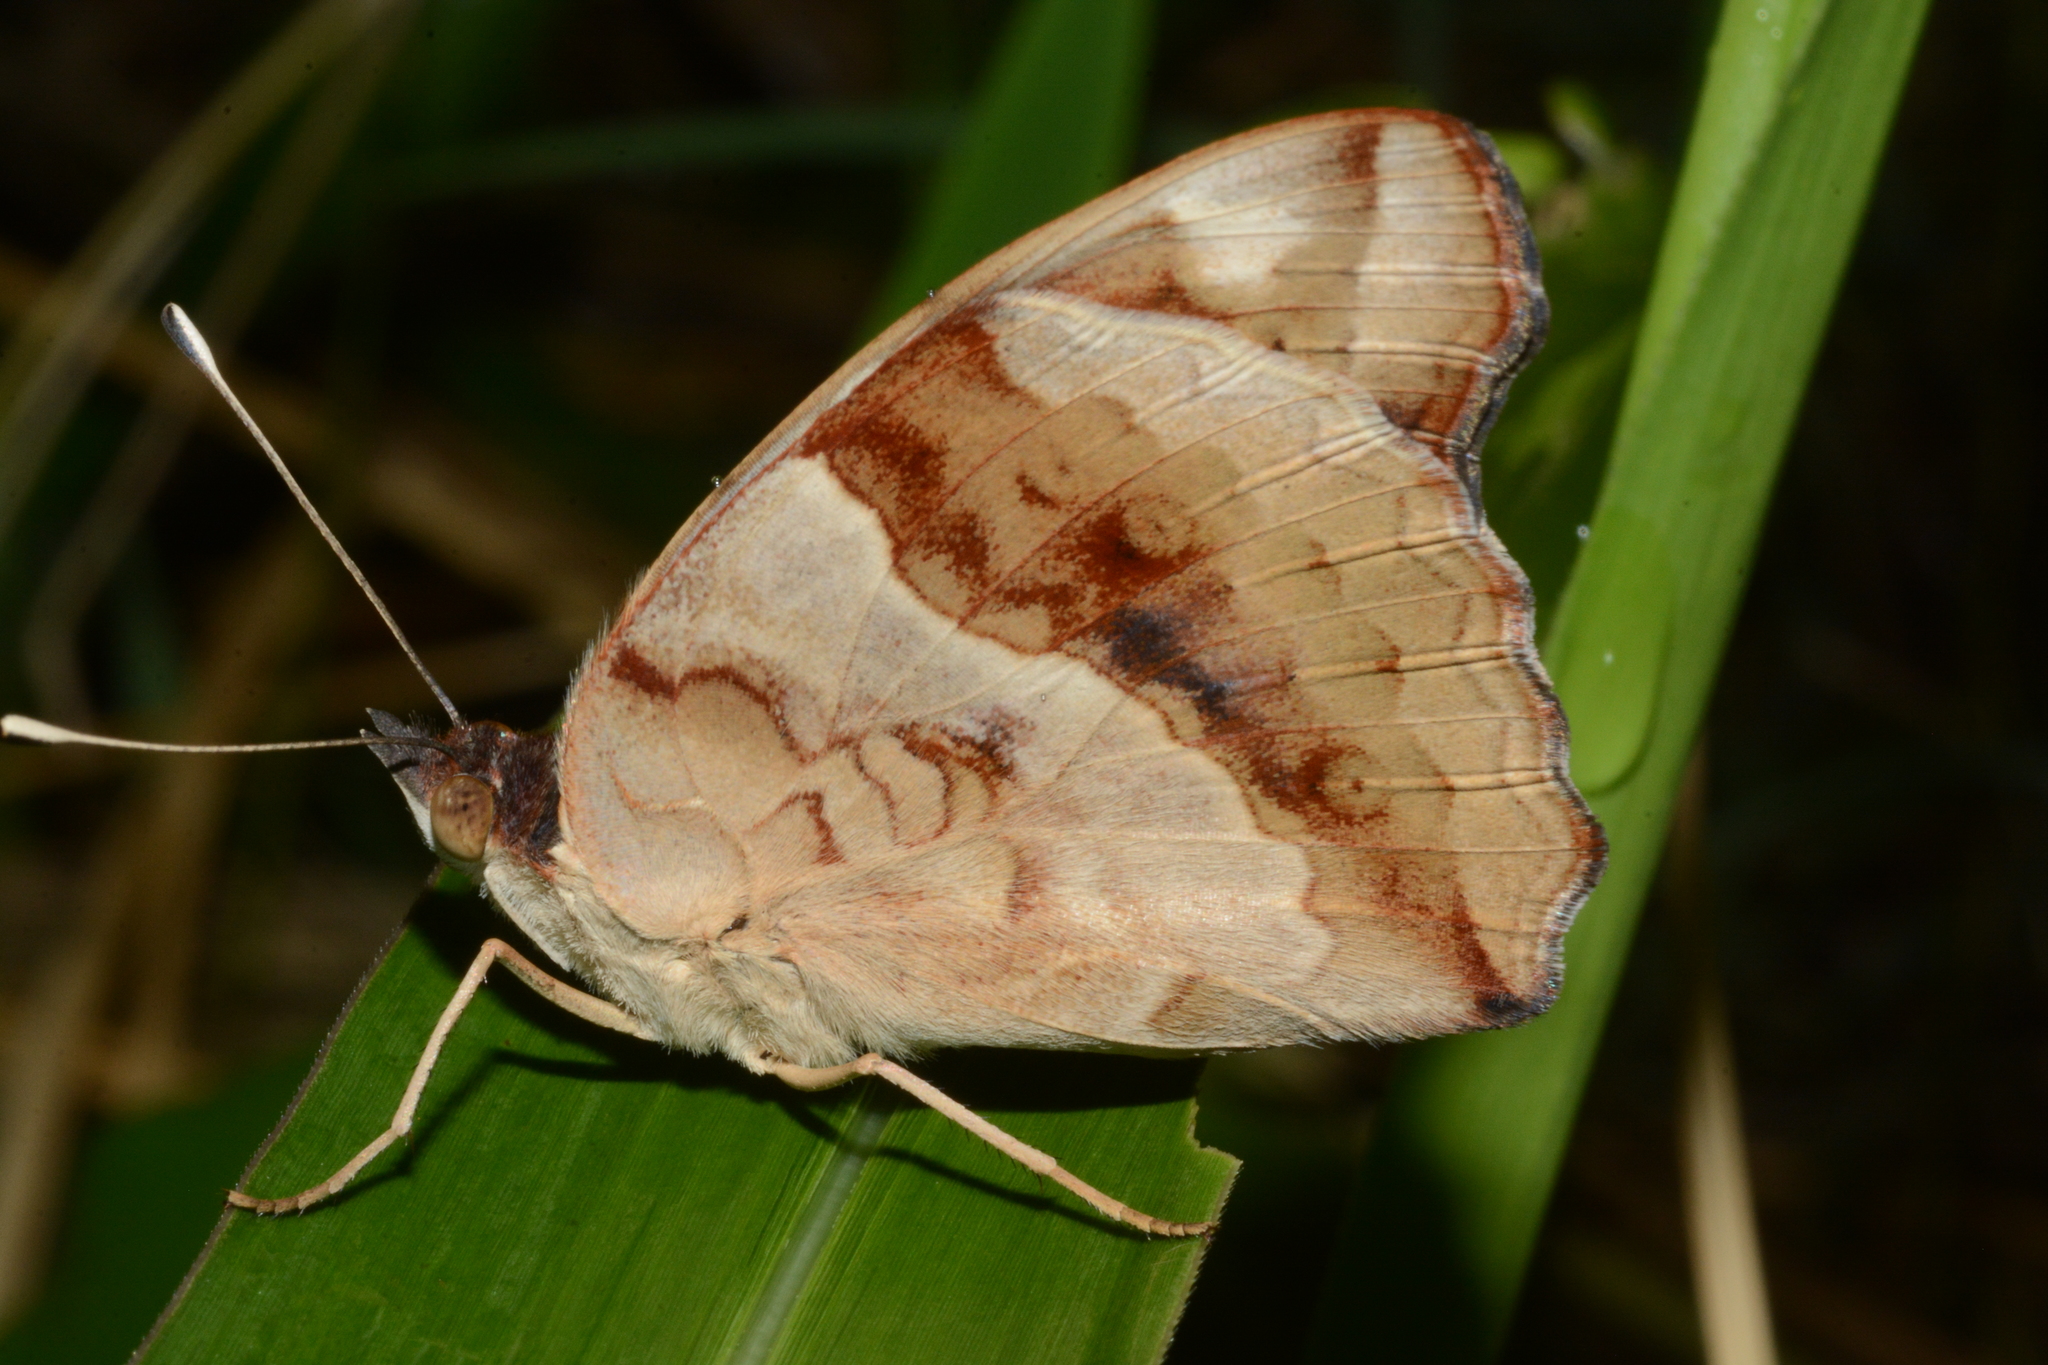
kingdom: Animalia
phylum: Arthropoda
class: Insecta
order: Lepidoptera
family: Nymphalidae
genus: Junonia
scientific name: Junonia oenone
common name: Dark blue pansy
